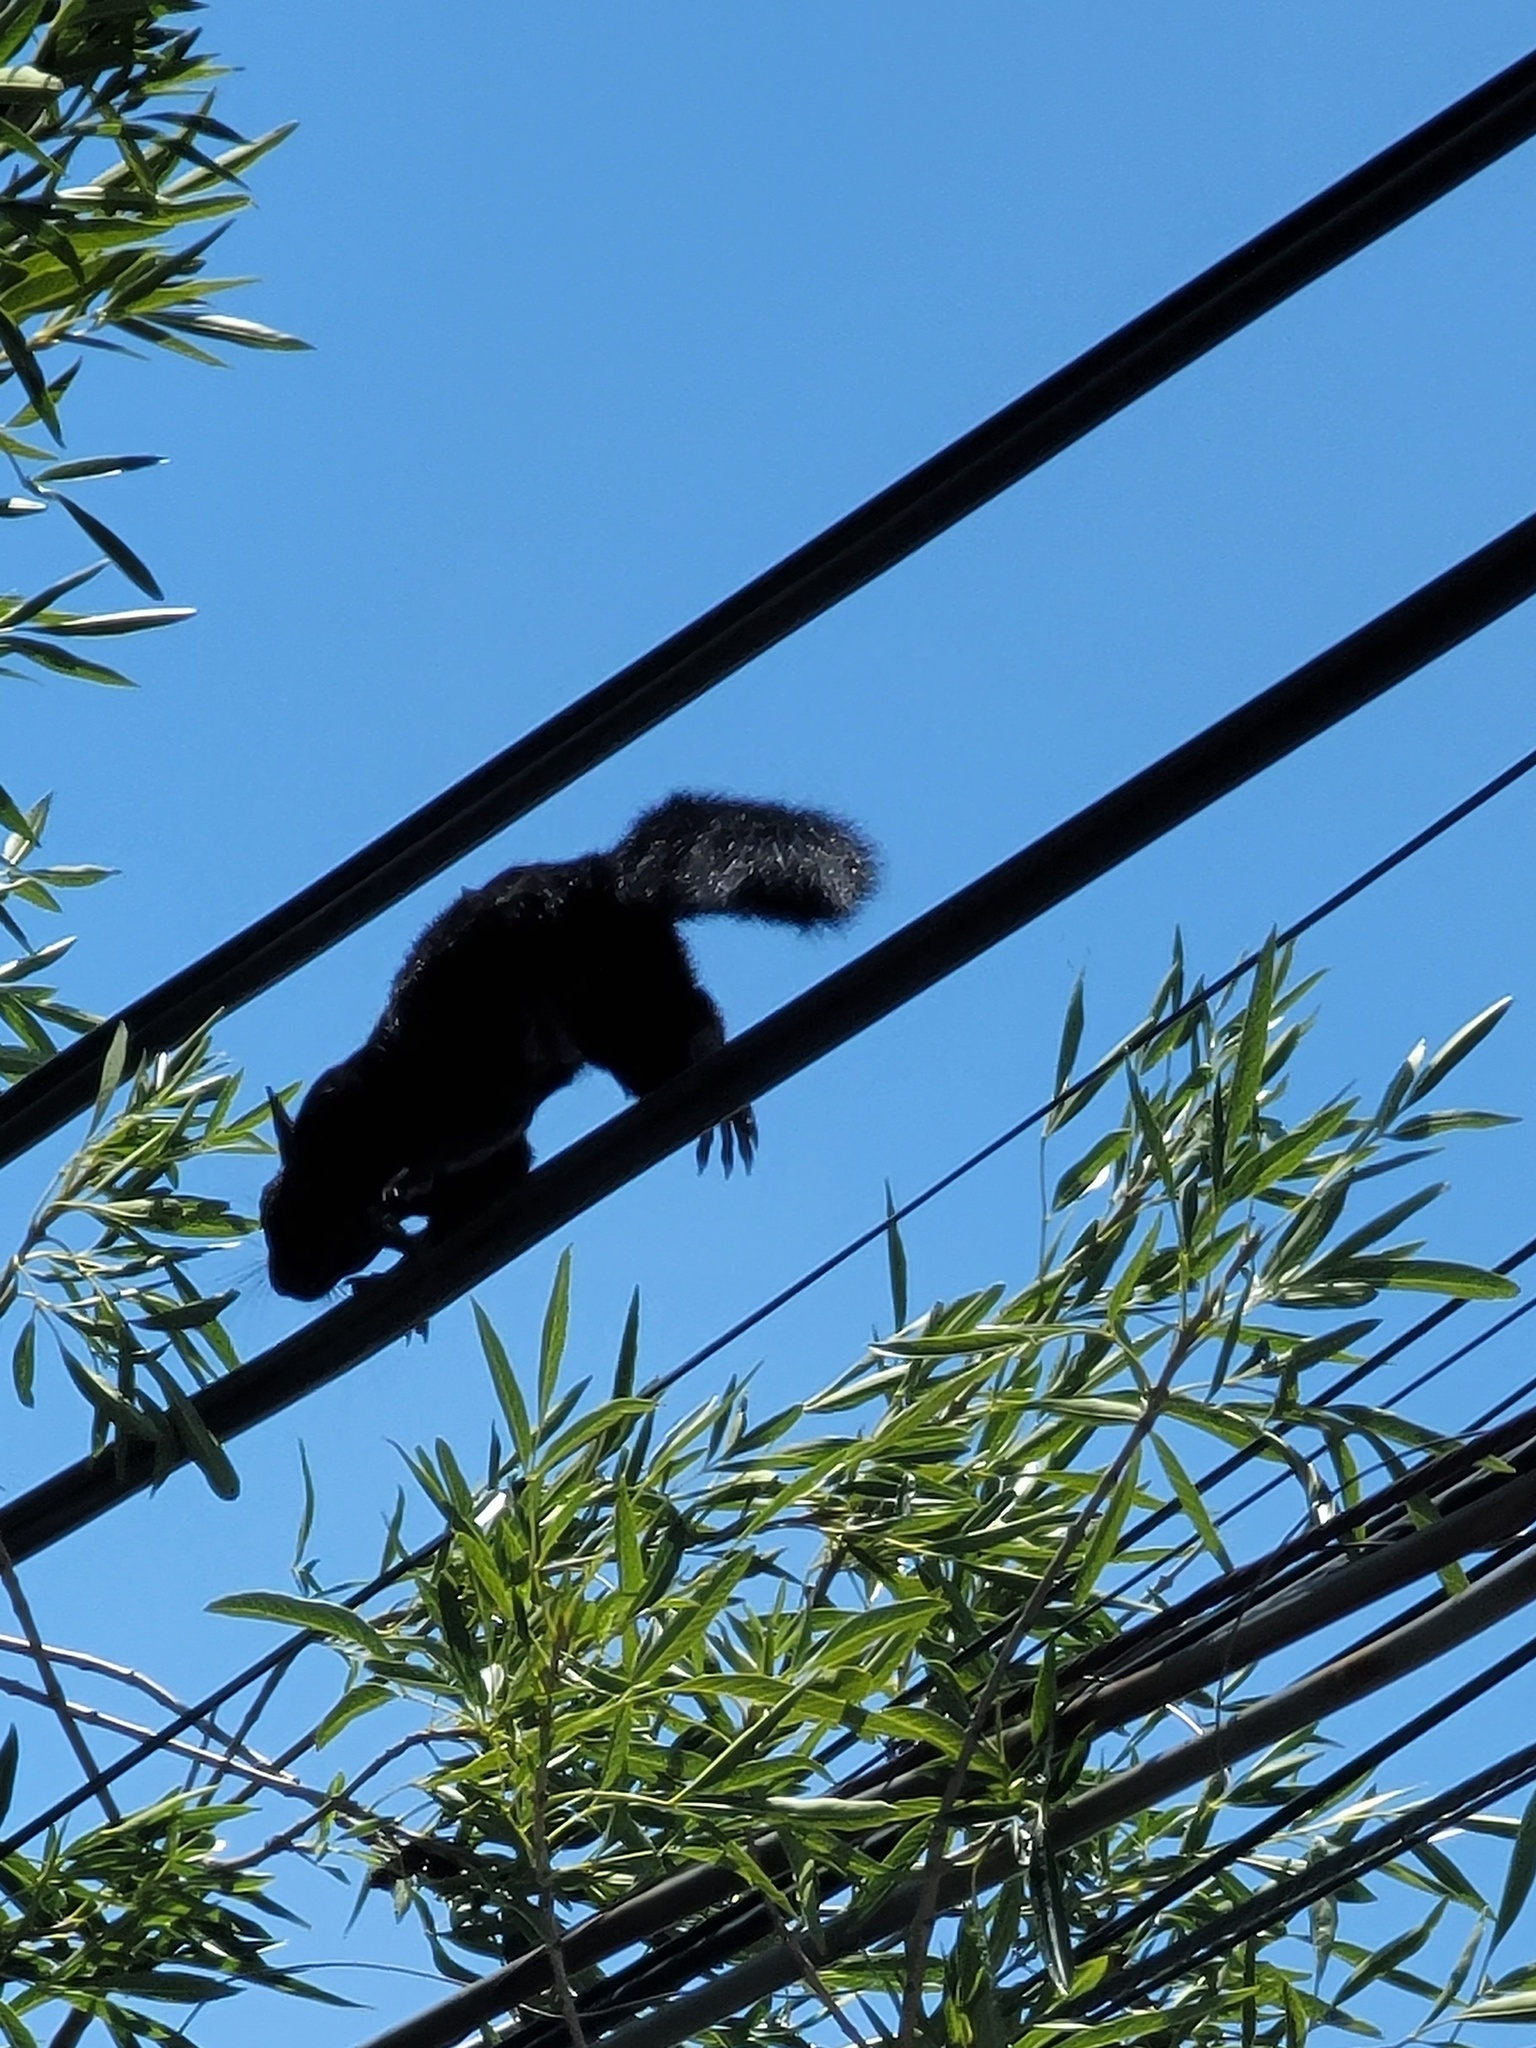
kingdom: Animalia
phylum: Chordata
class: Mammalia
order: Rodentia
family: Sciuridae
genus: Sciurus
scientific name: Sciurus aureogaster
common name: Red-bellied squirrel
